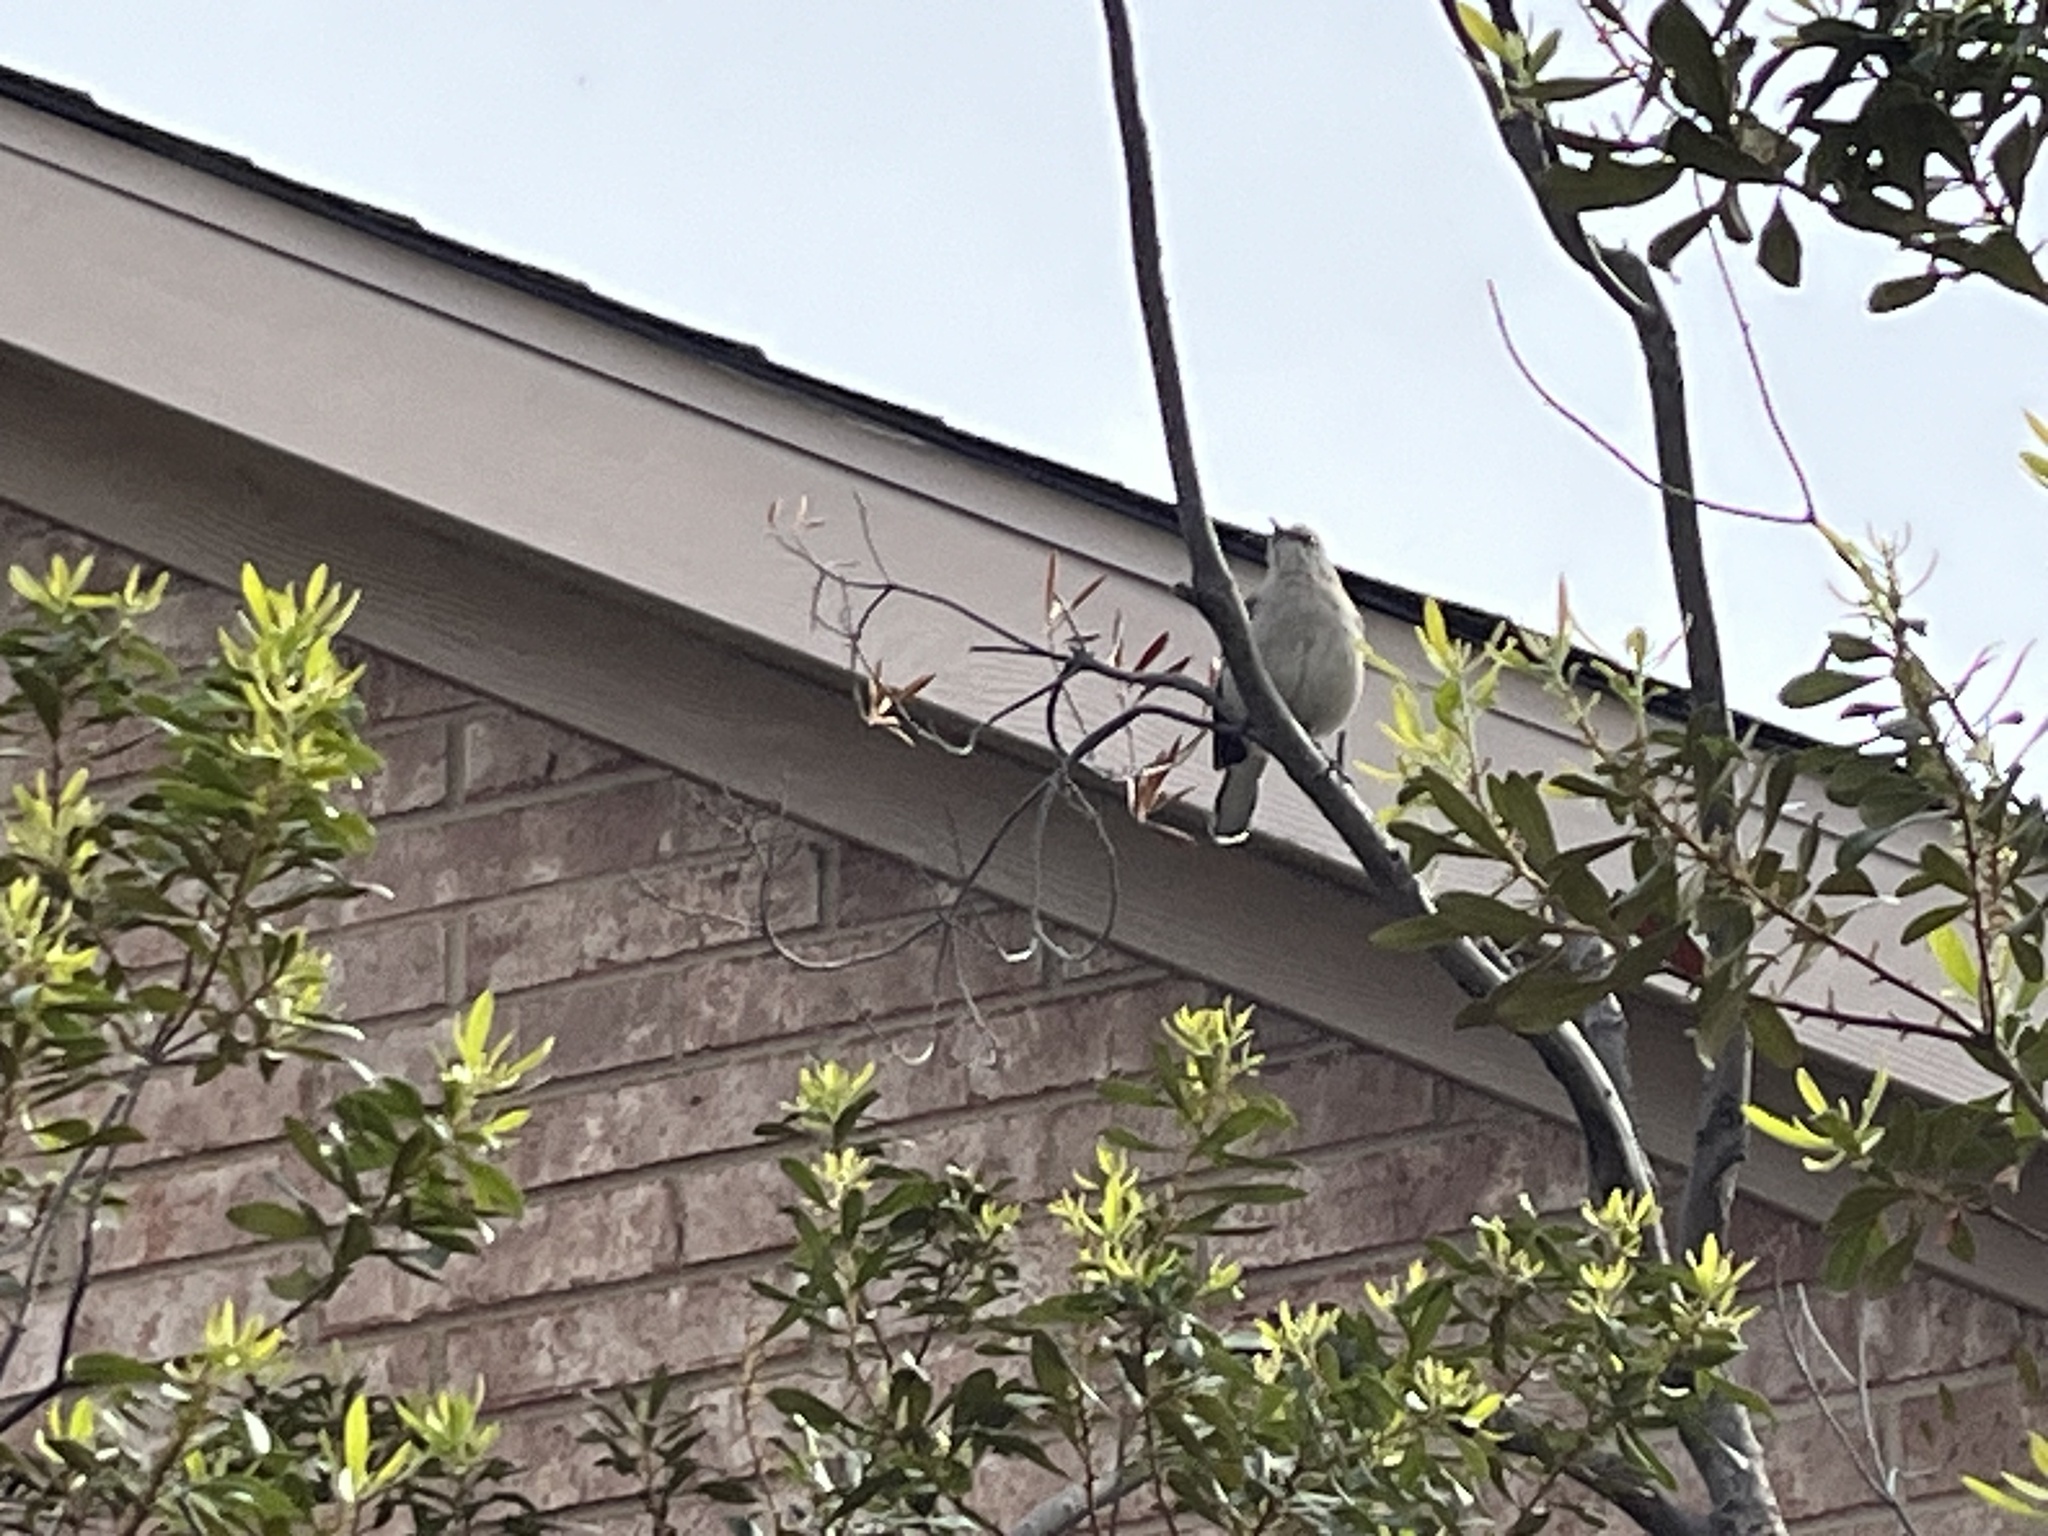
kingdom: Animalia
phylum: Chordata
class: Aves
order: Passeriformes
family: Mimidae
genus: Mimus
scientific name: Mimus polyglottos
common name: Northern mockingbird
